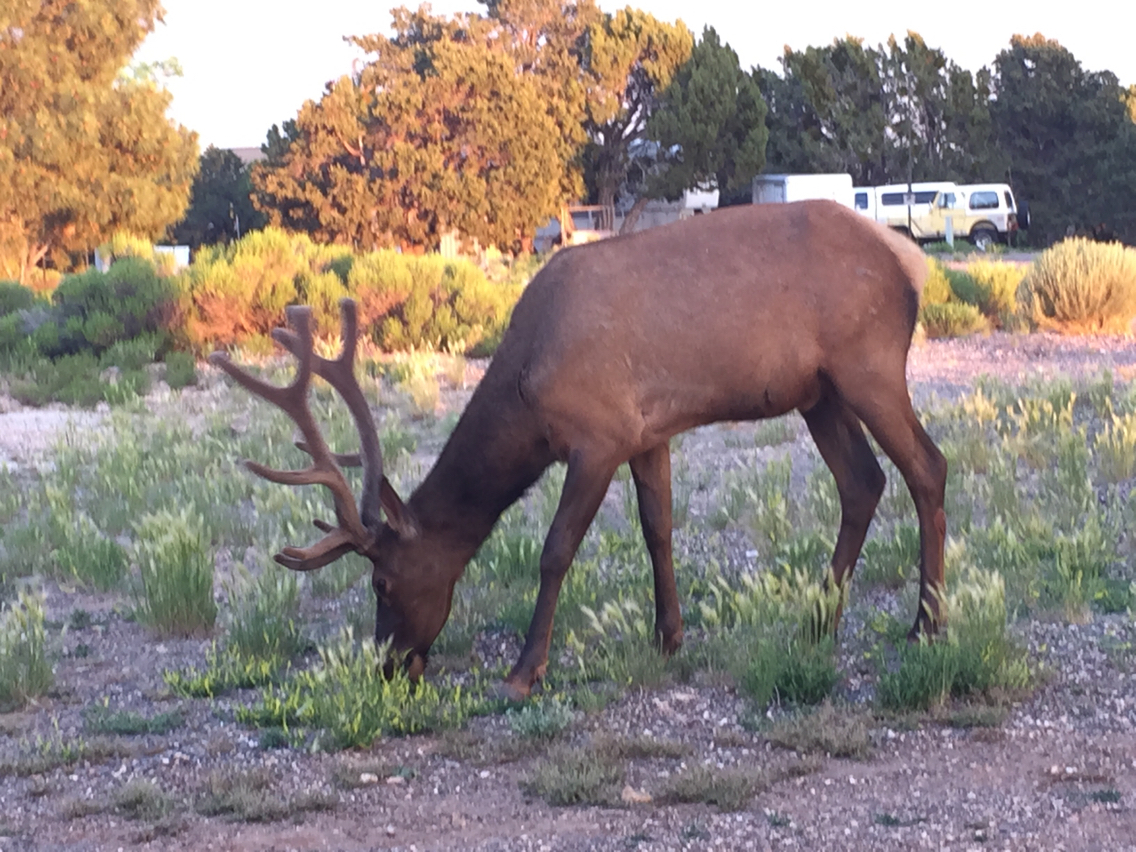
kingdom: Animalia
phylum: Chordata
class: Mammalia
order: Artiodactyla
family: Cervidae
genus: Cervus
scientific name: Cervus elaphus
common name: Red deer
